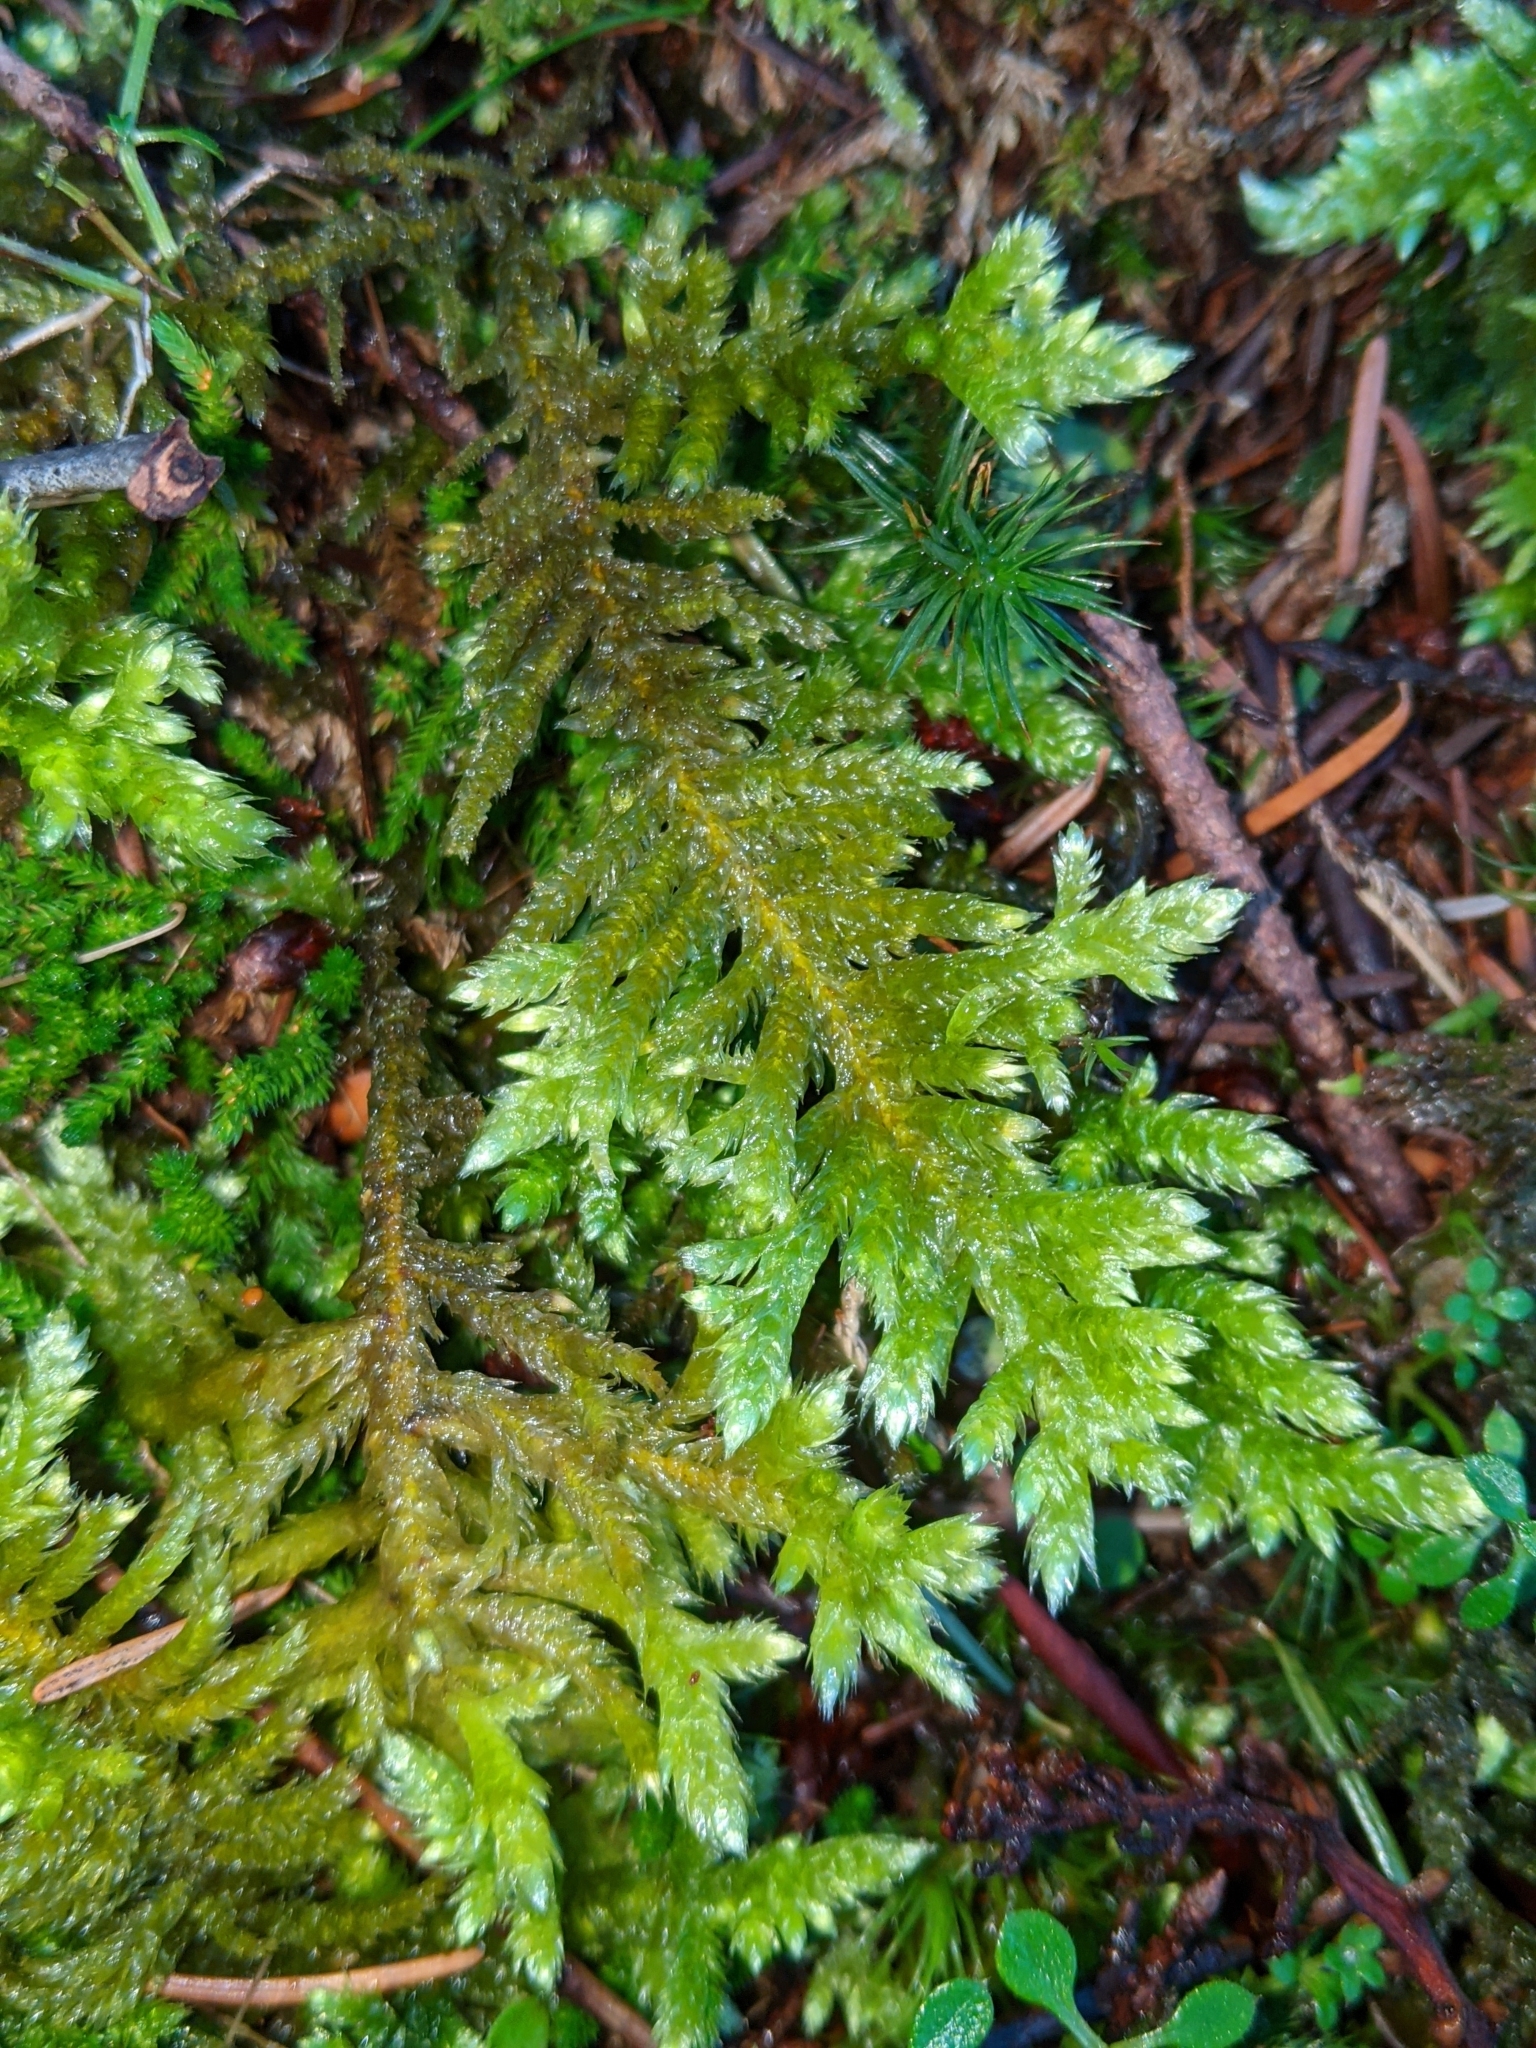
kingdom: Plantae
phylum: Bryophyta
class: Bryopsida
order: Hypnales
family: Brachytheciaceae
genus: Homalothecium
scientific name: Homalothecium megaptilum
